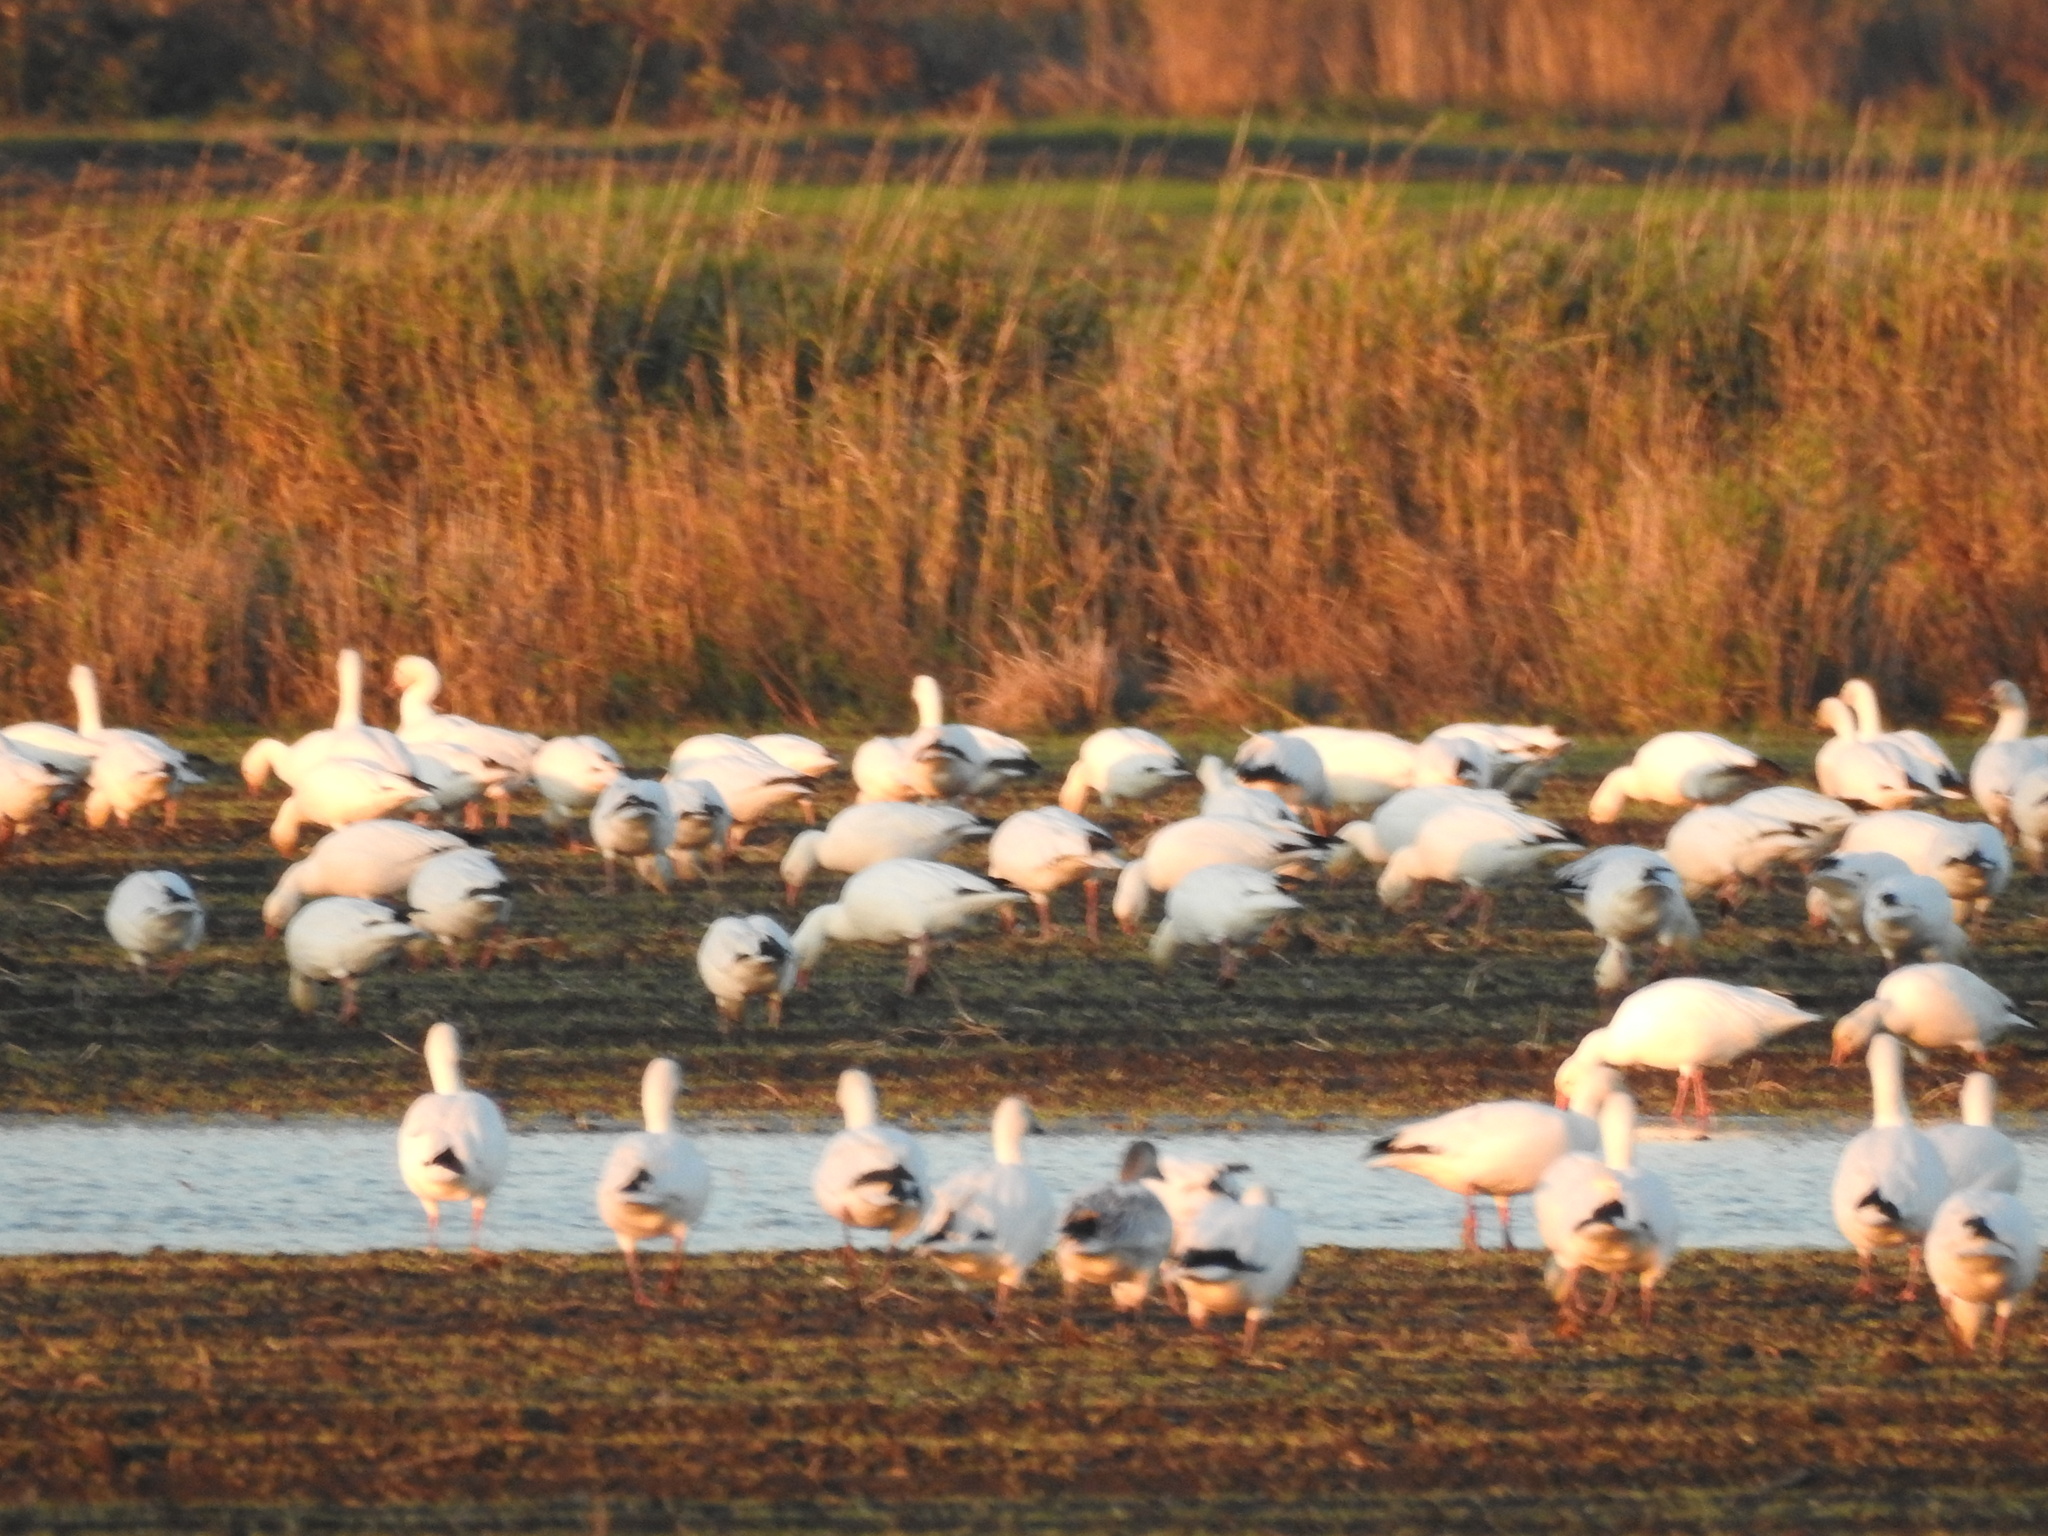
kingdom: Animalia
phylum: Chordata
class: Aves
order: Anseriformes
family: Anatidae
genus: Anser
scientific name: Anser caerulescens
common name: Snow goose
